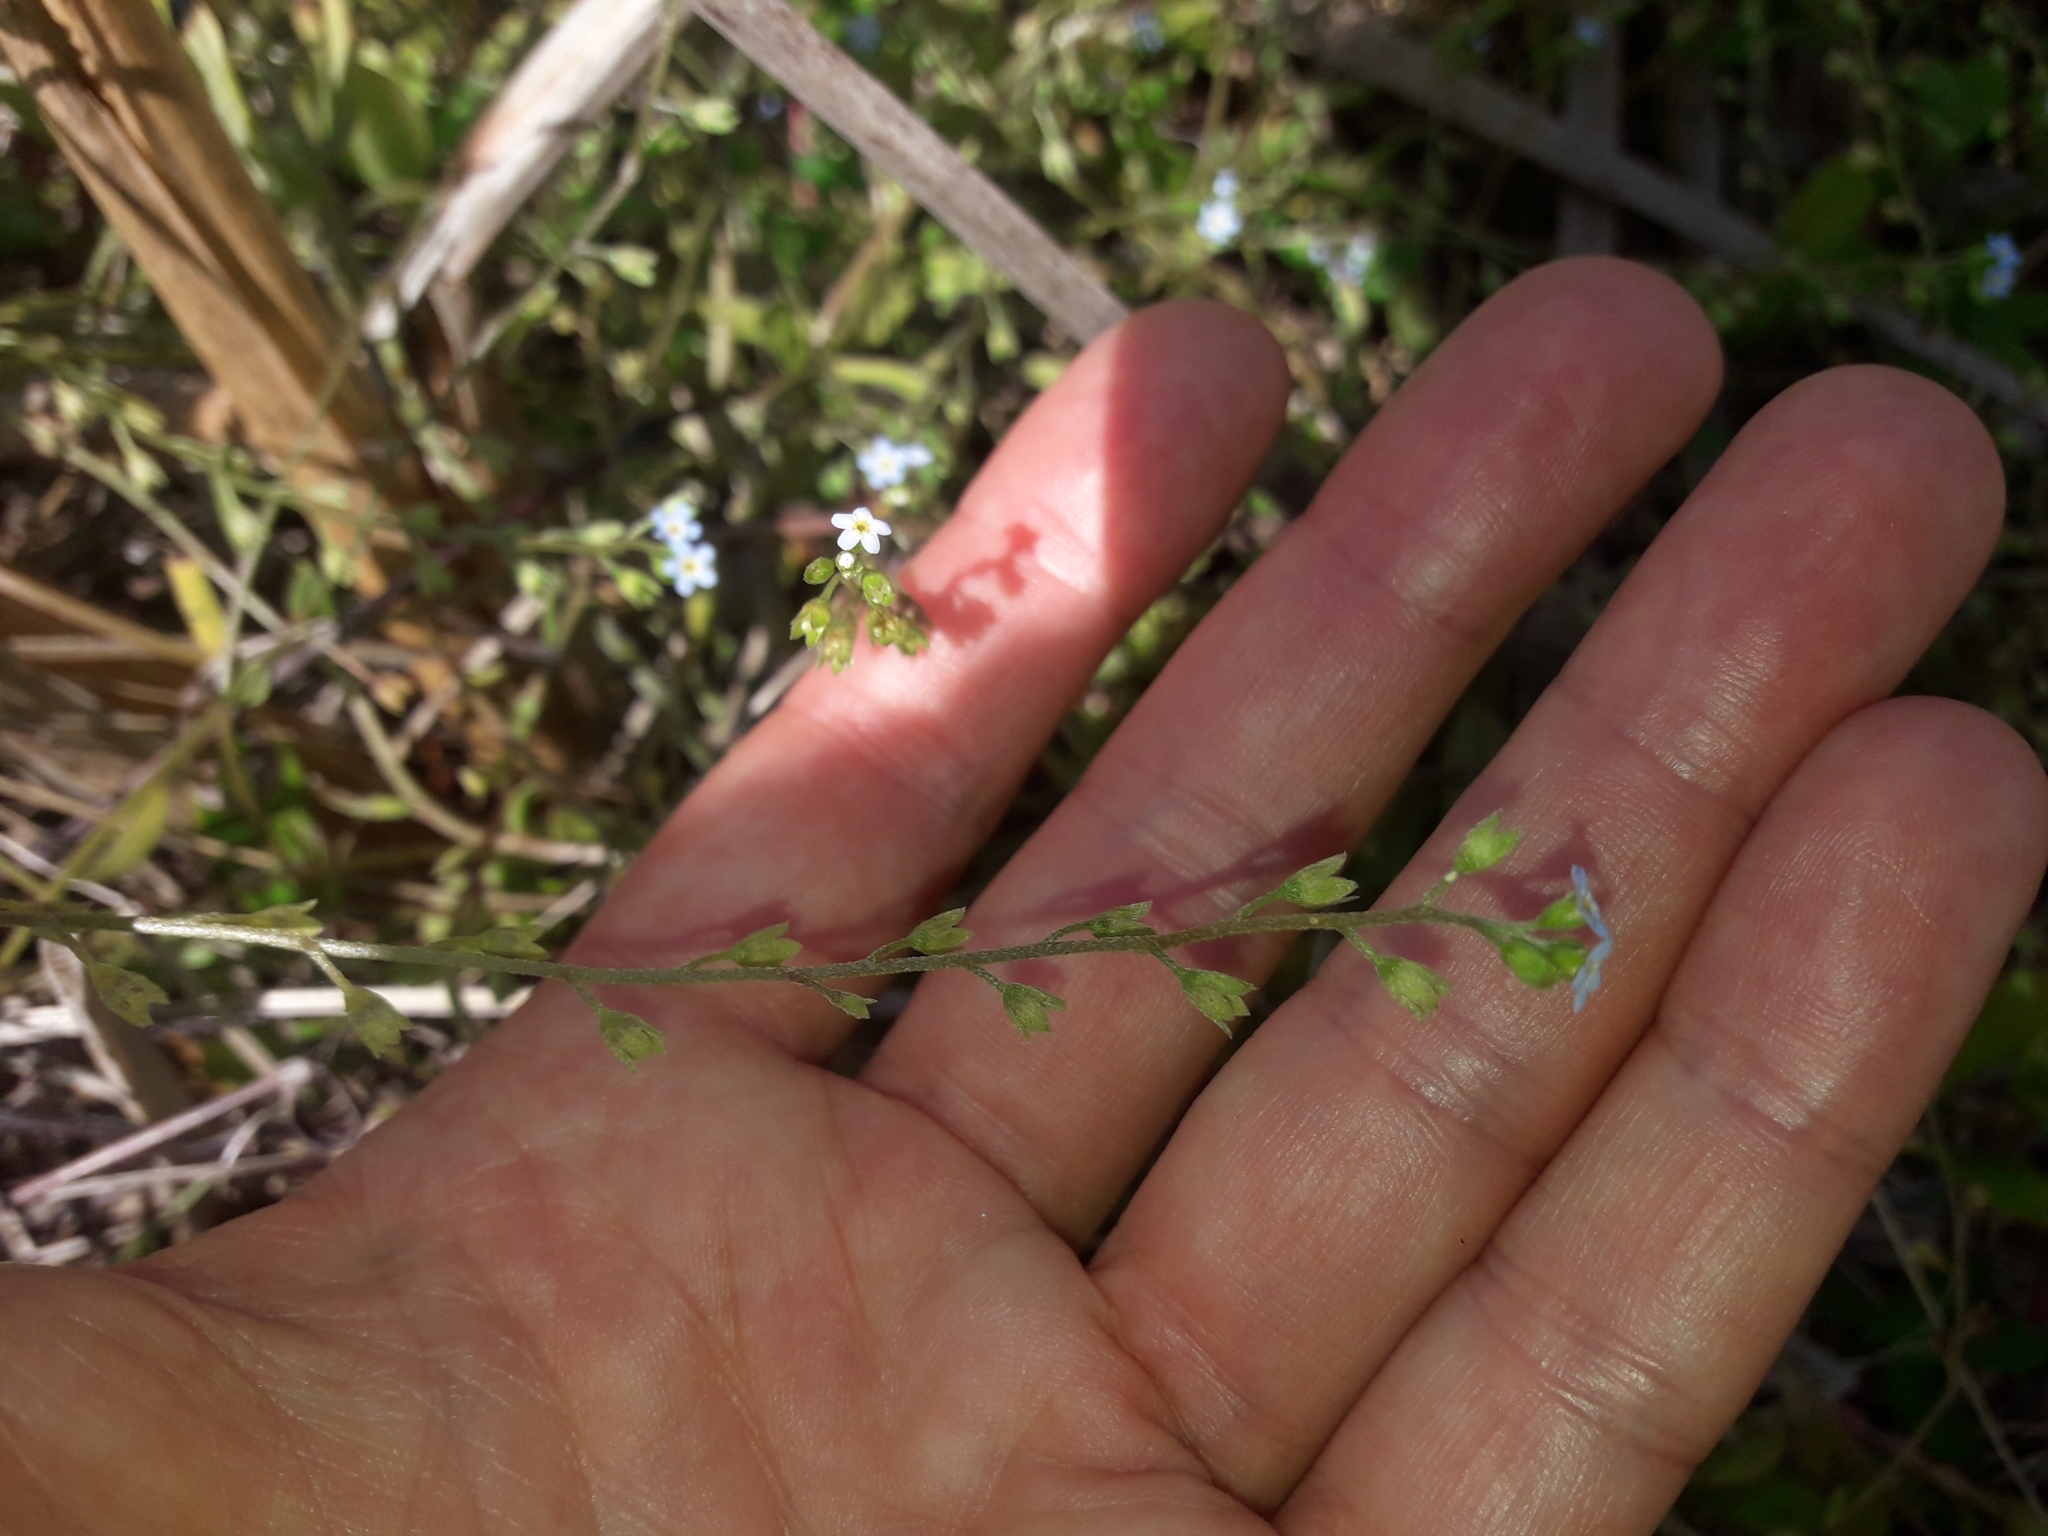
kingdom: Plantae
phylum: Tracheophyta
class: Magnoliopsida
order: Boraginales
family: Boraginaceae
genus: Myosotis
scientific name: Myosotis laxa
